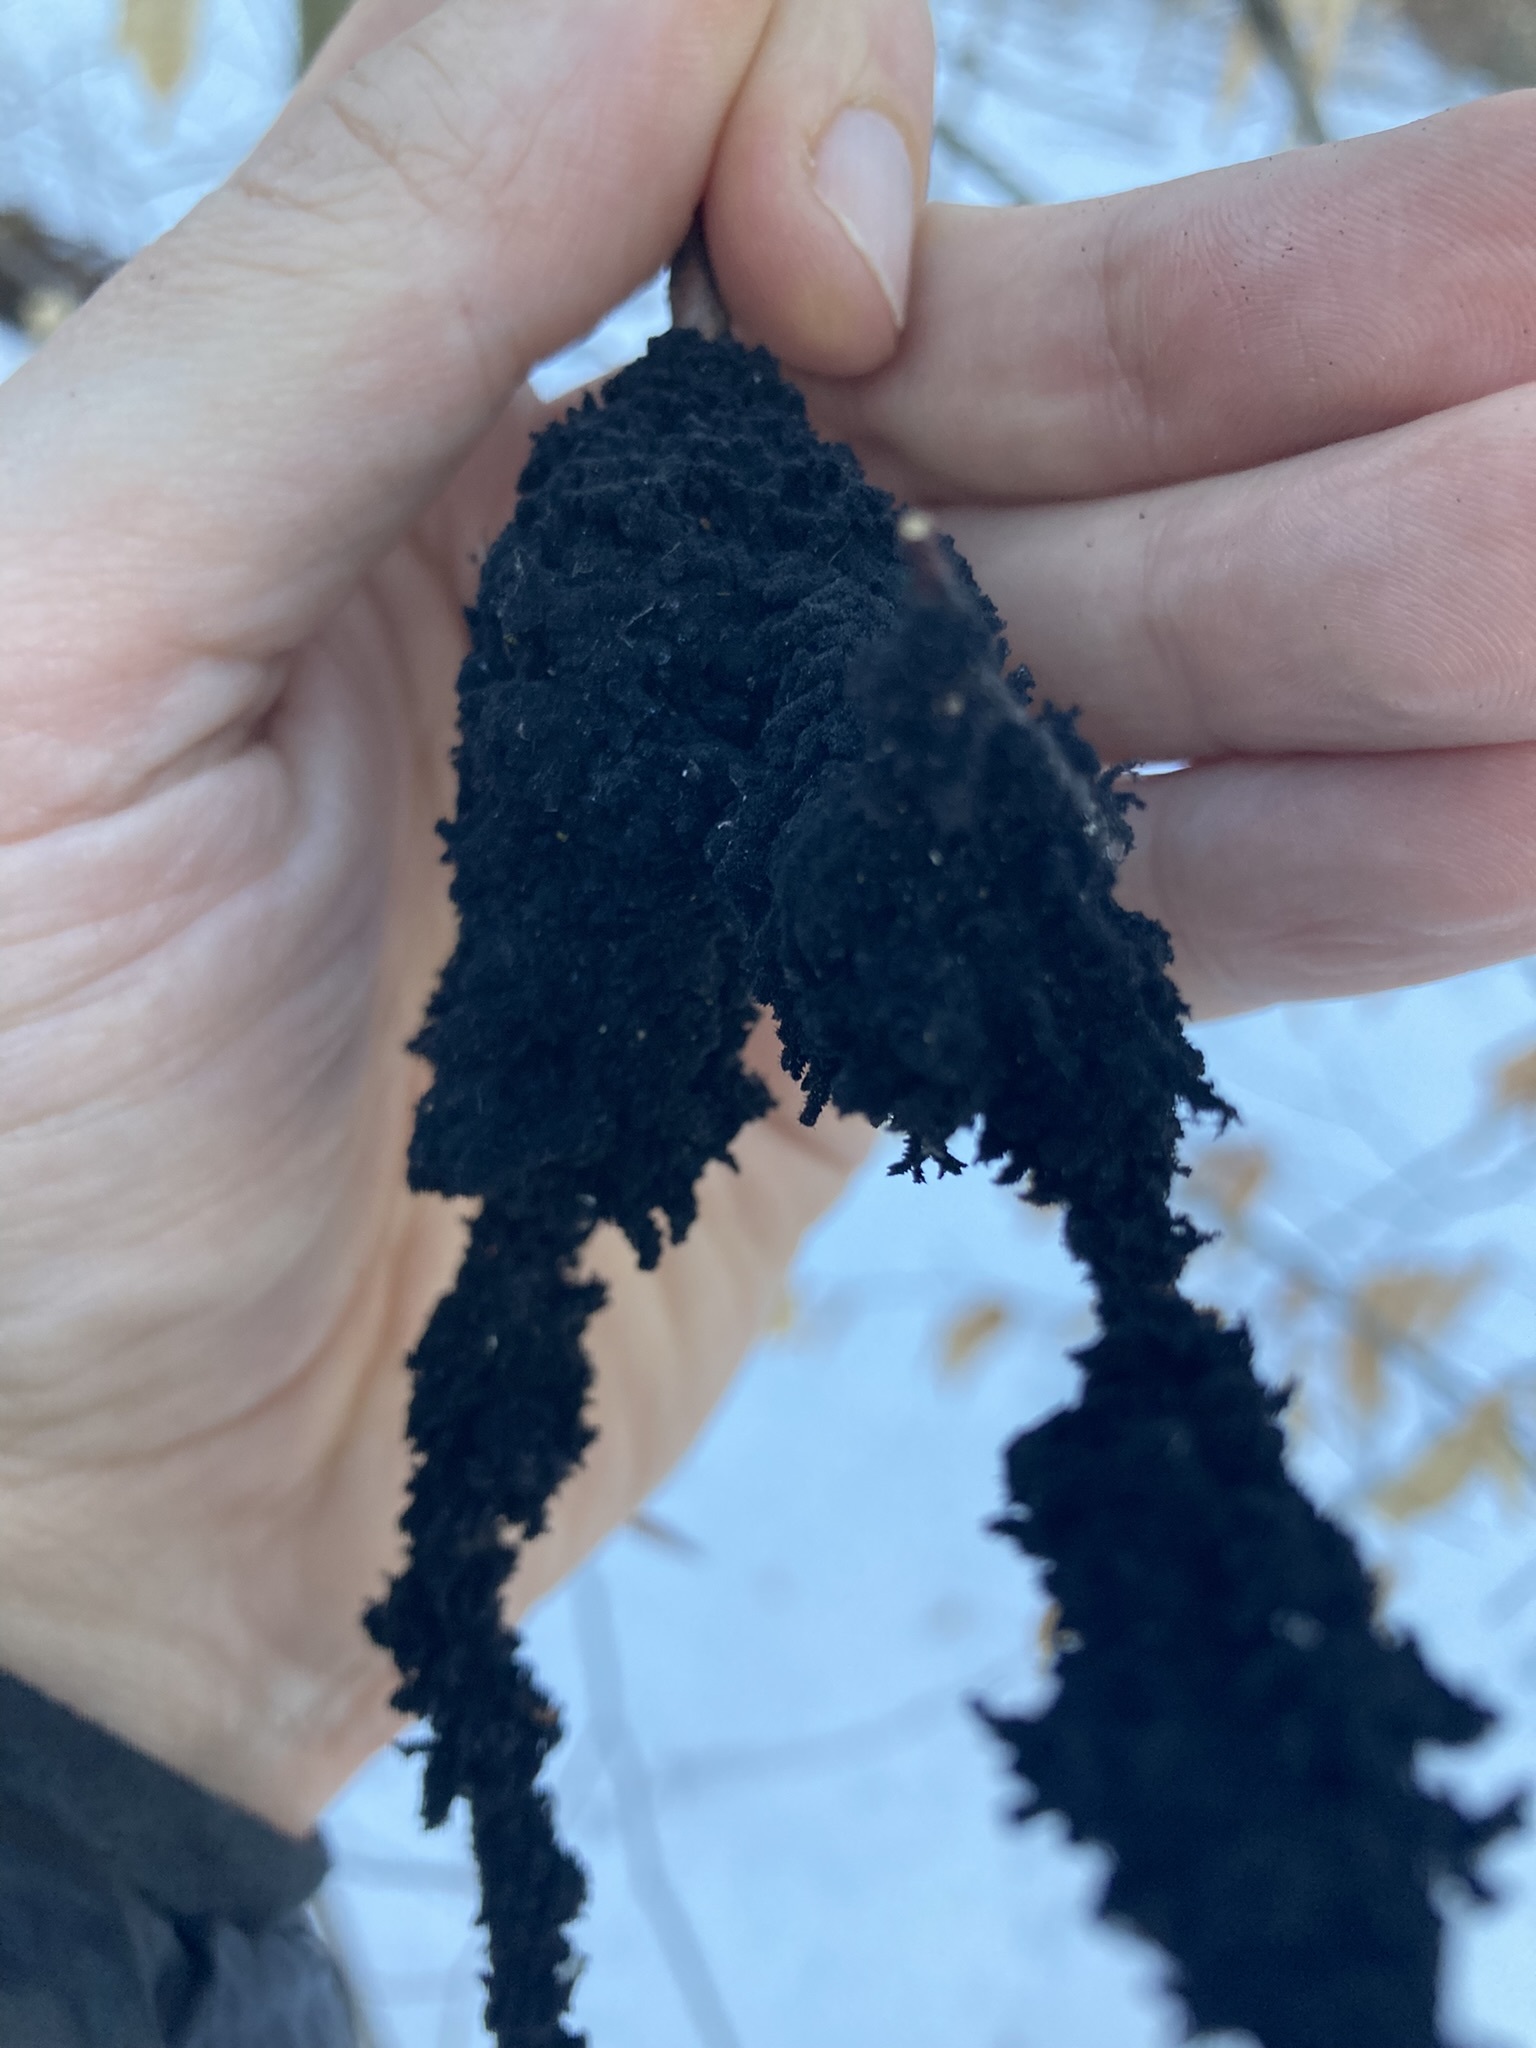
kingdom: Fungi
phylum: Ascomycota
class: Dothideomycetes
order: Capnodiales
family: Capnodiaceae
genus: Scorias
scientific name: Scorias spongiosa
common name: Black sooty mold
